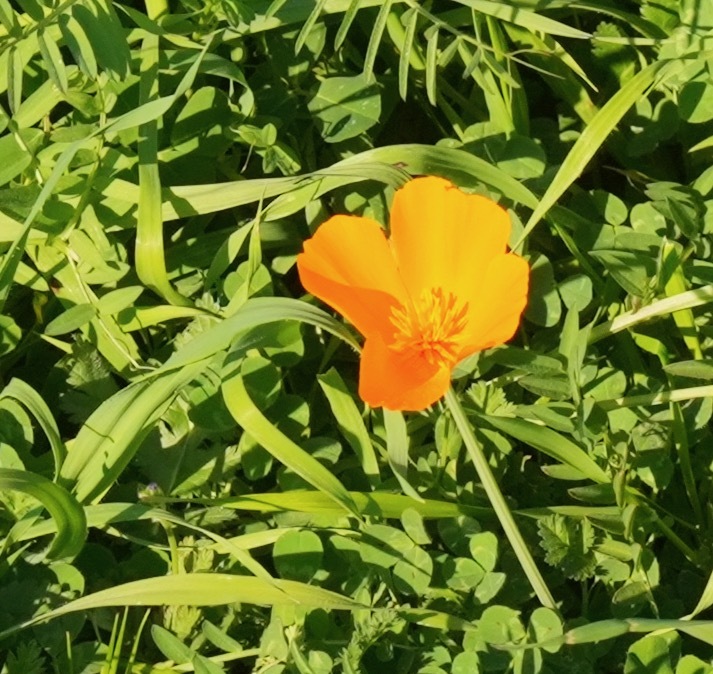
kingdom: Plantae
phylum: Tracheophyta
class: Magnoliopsida
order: Ranunculales
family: Papaveraceae
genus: Eschscholzia
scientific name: Eschscholzia californica
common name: California poppy
